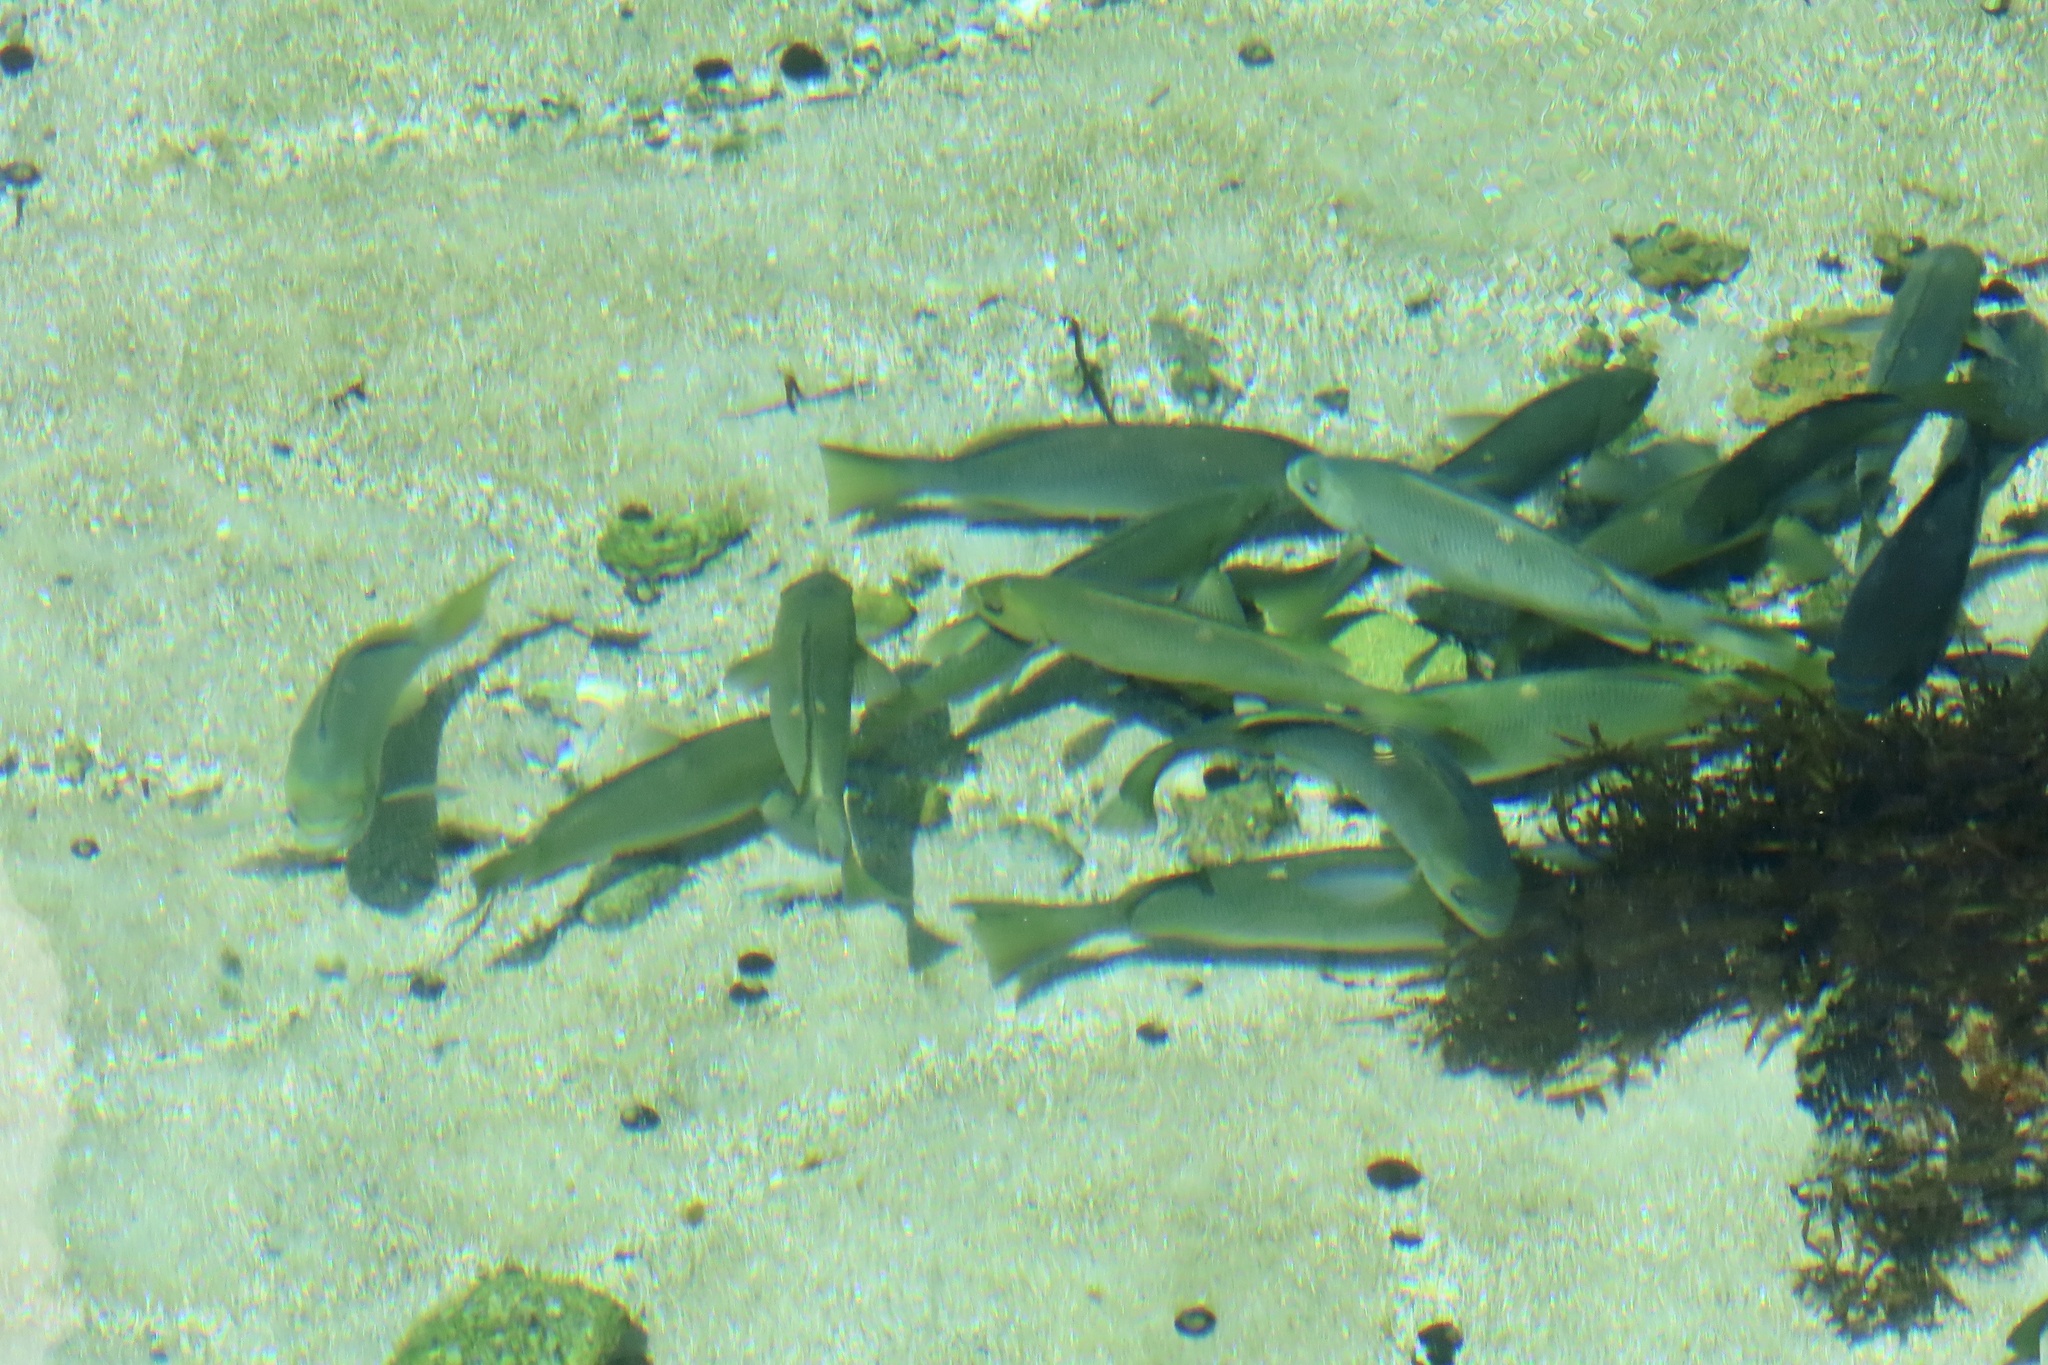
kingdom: Animalia
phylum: Chordata
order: Perciformes
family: Kyphosidae
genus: Girella
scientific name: Girella nigricans
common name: Opaleye
